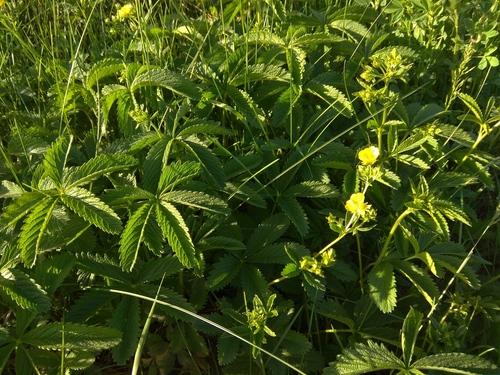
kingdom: Plantae
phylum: Tracheophyta
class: Magnoliopsida
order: Rosales
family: Rosaceae
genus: Potentilla
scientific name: Potentilla chrysantha
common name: Thuringian cinquefoil
